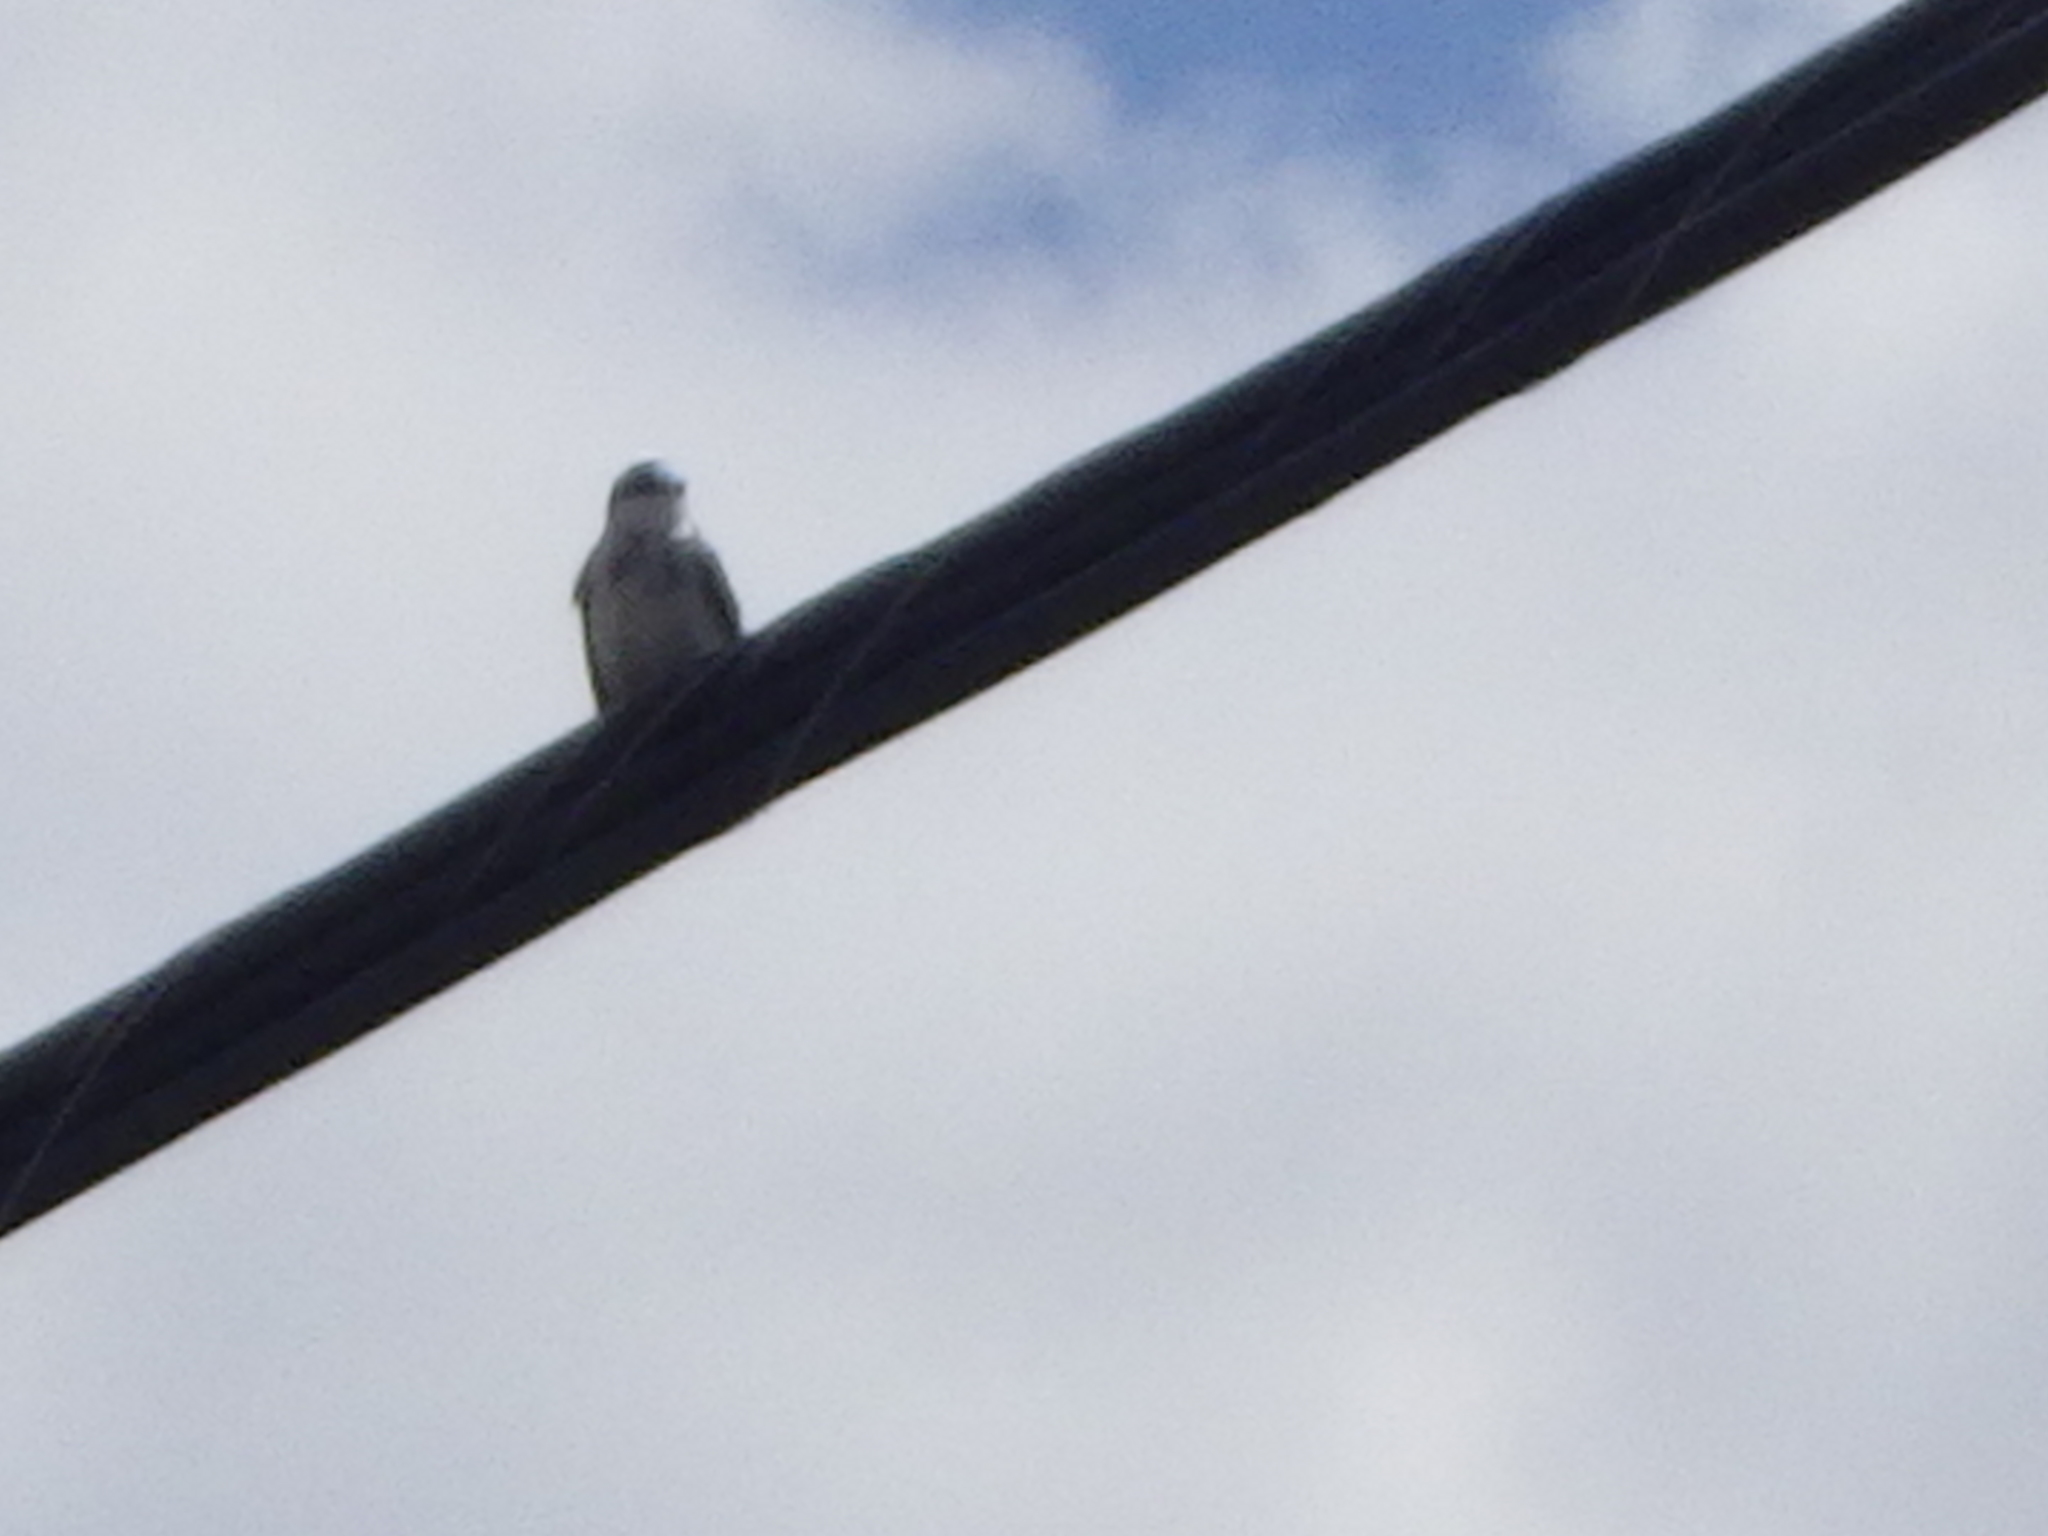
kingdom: Animalia
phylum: Chordata
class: Aves
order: Passeriformes
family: Hirundinidae
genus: Tachycineta
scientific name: Tachycineta bicolor
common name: Tree swallow
